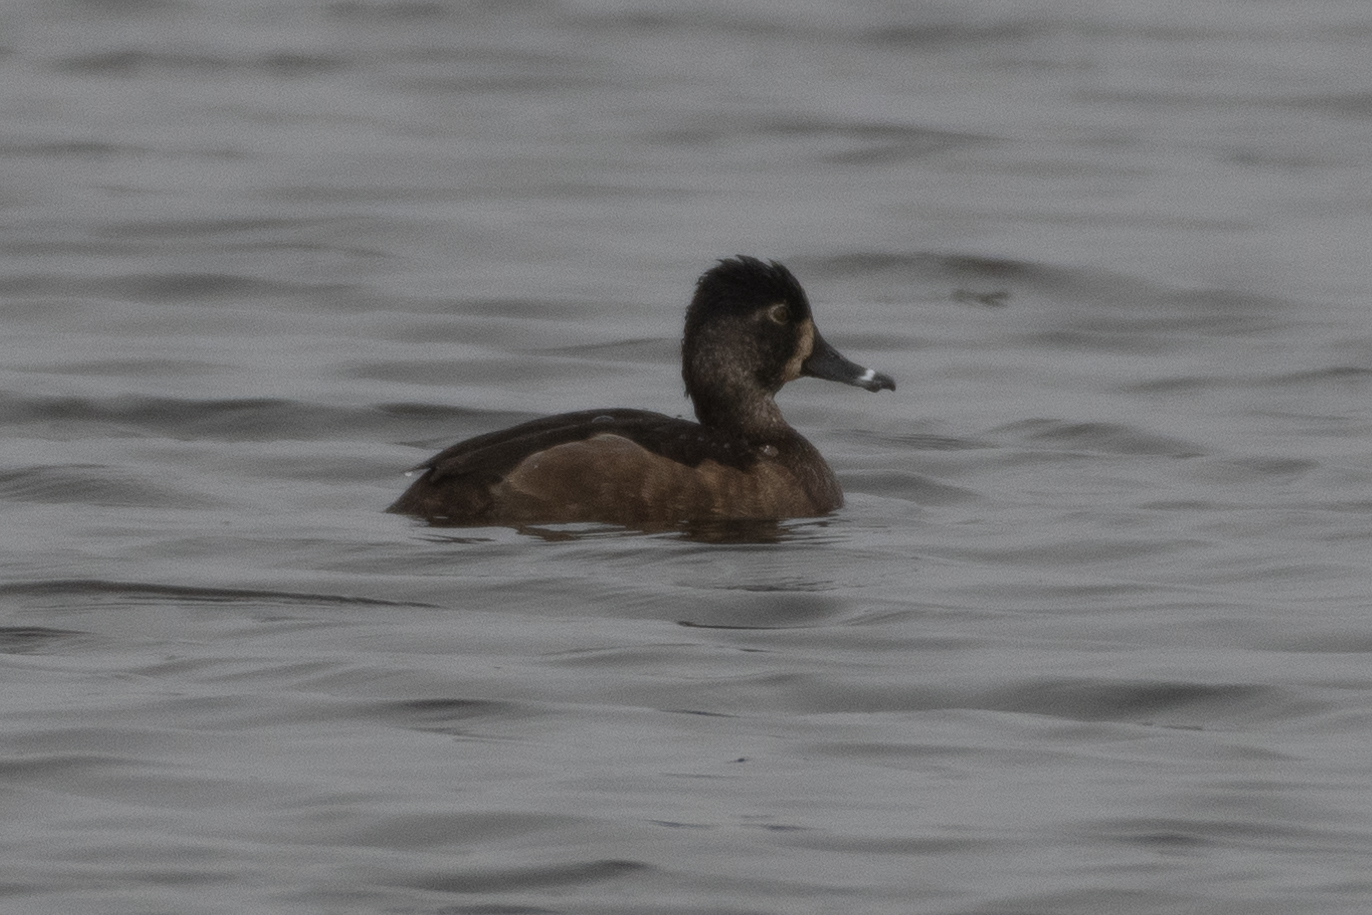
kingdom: Animalia
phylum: Chordata
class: Aves
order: Anseriformes
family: Anatidae
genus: Aythya
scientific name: Aythya collaris
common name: Ring-necked duck
